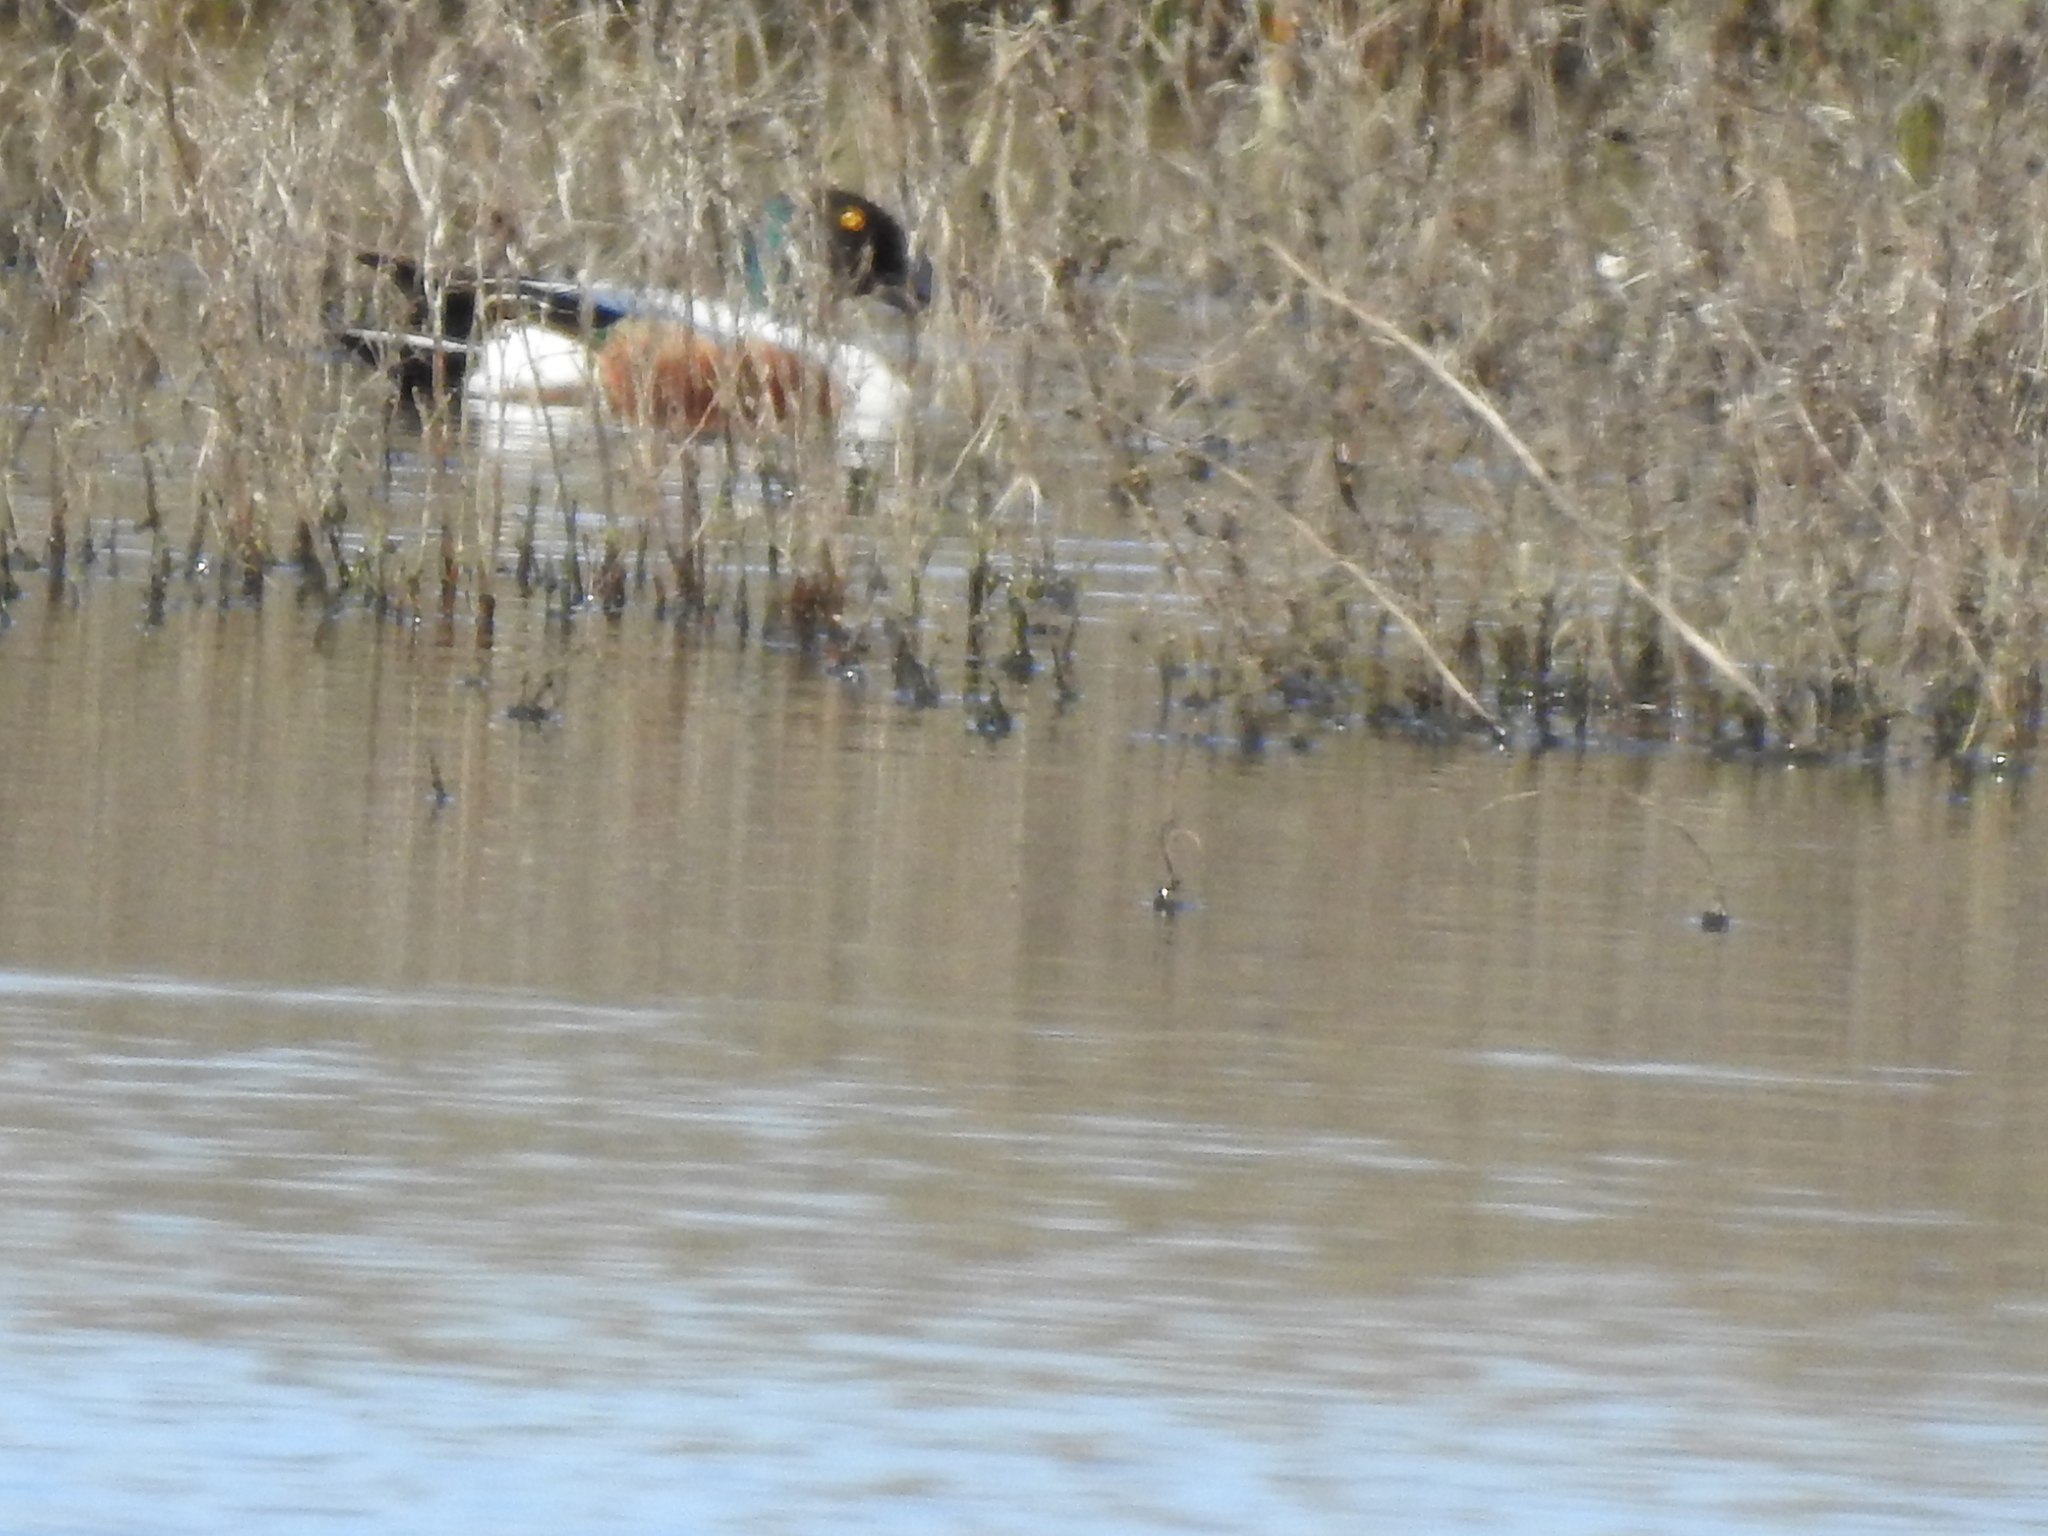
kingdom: Animalia
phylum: Chordata
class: Aves
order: Anseriformes
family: Anatidae
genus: Spatula
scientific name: Spatula clypeata
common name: Northern shoveler
